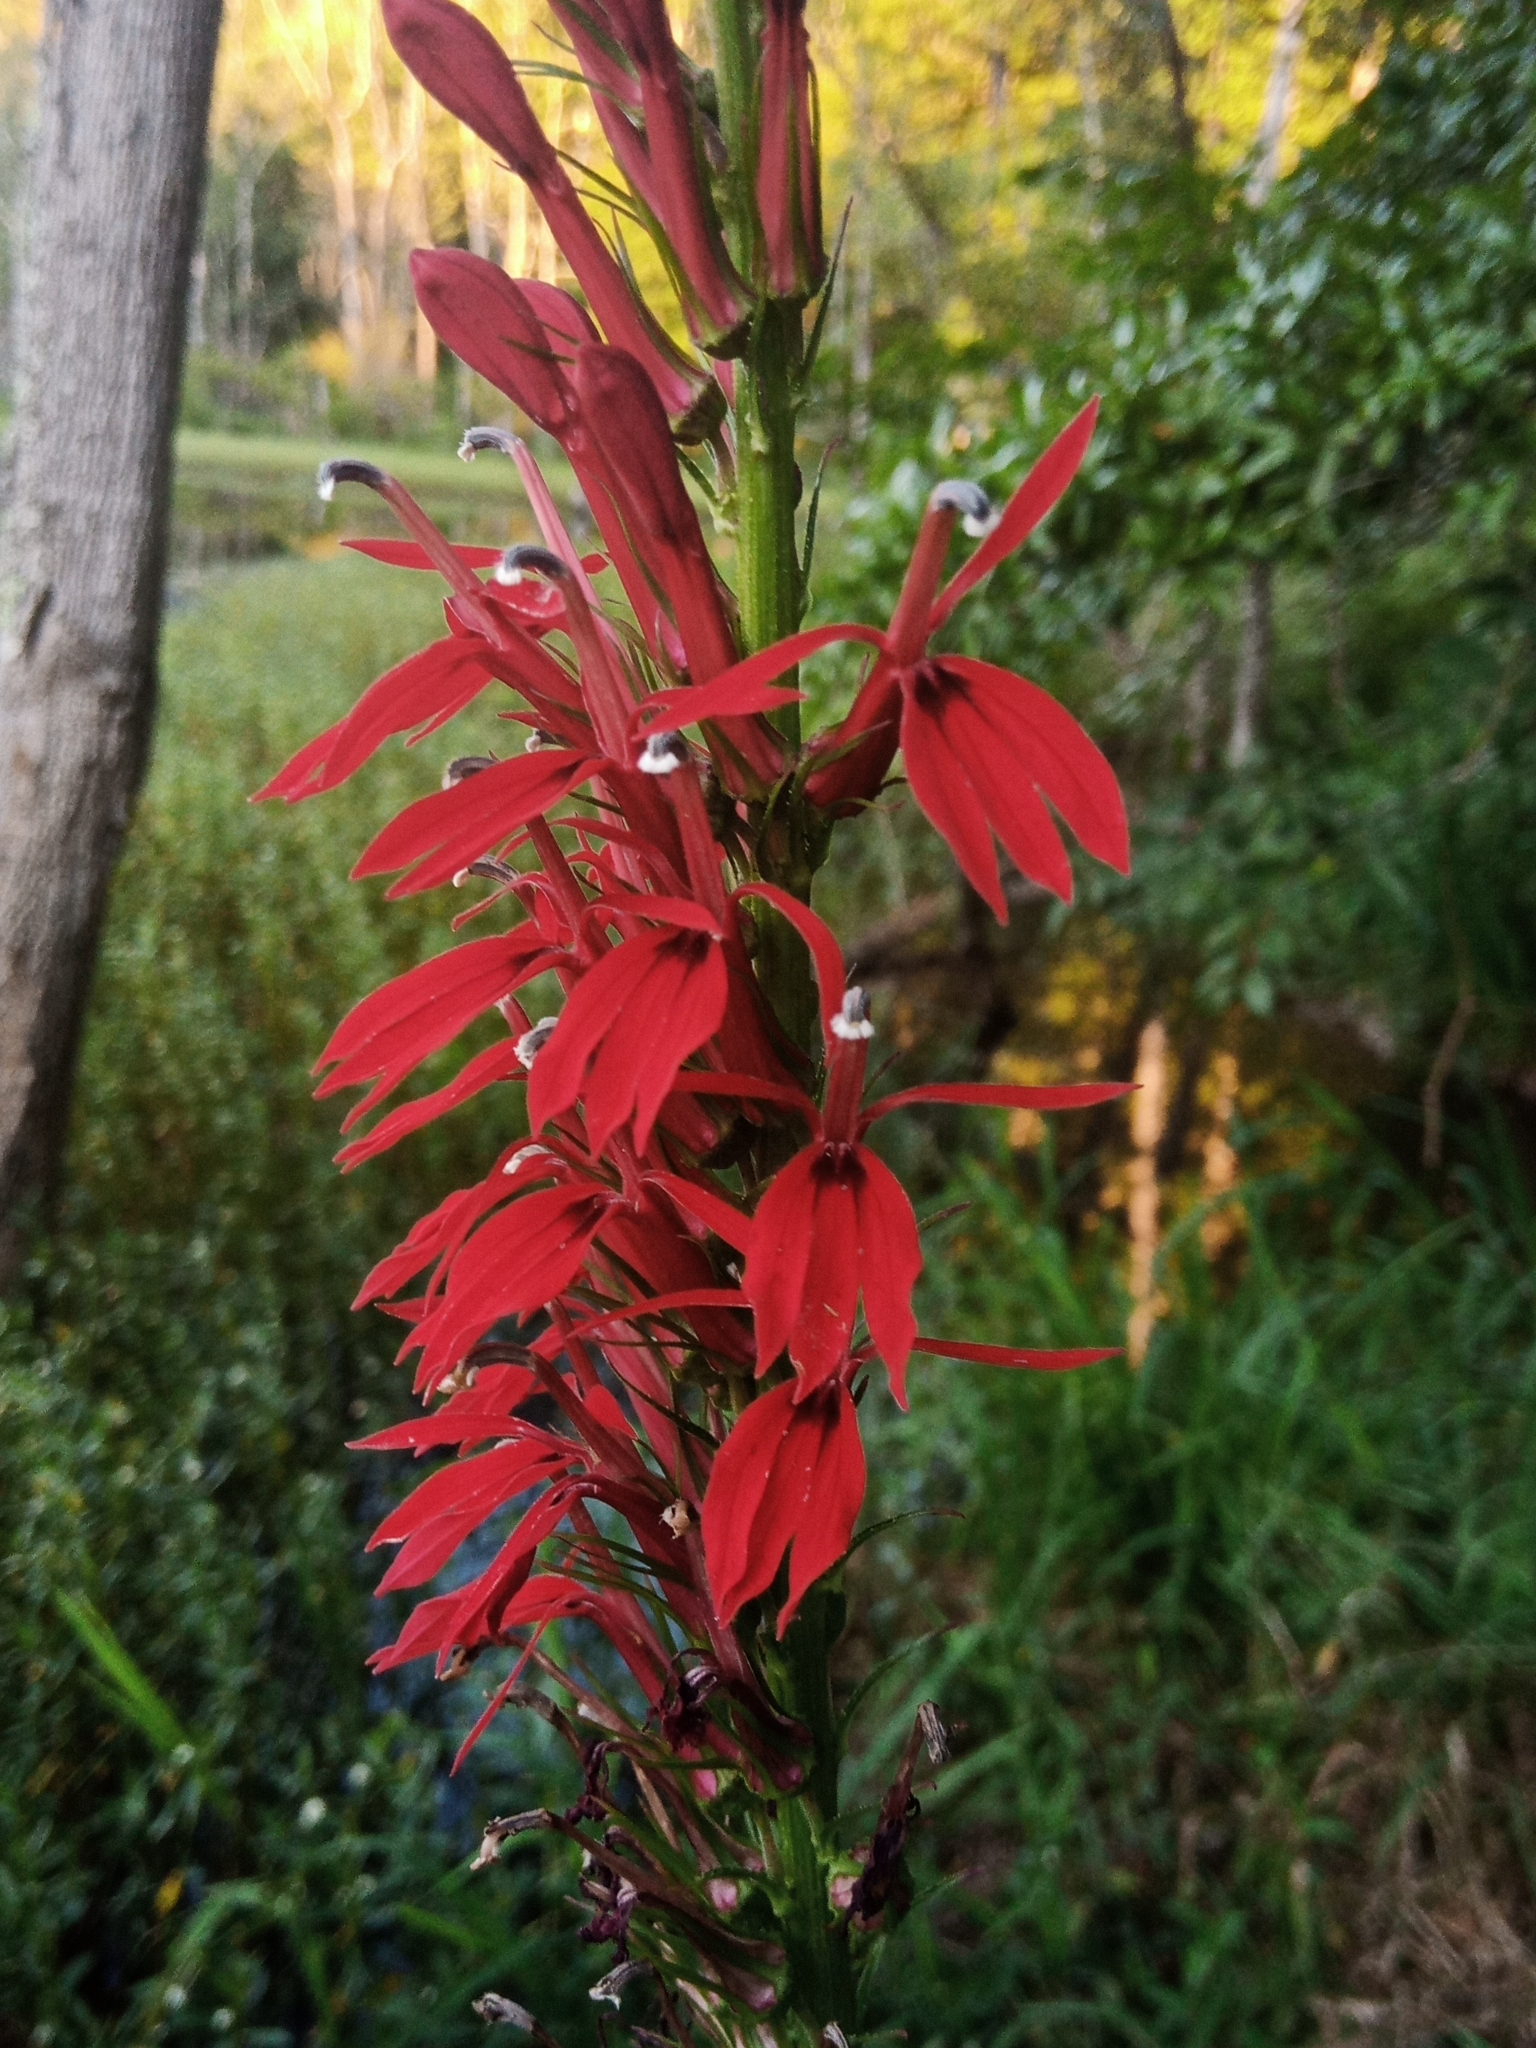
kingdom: Plantae
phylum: Tracheophyta
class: Magnoliopsida
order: Asterales
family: Campanulaceae
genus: Lobelia
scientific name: Lobelia cardinalis
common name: Cardinal flower
